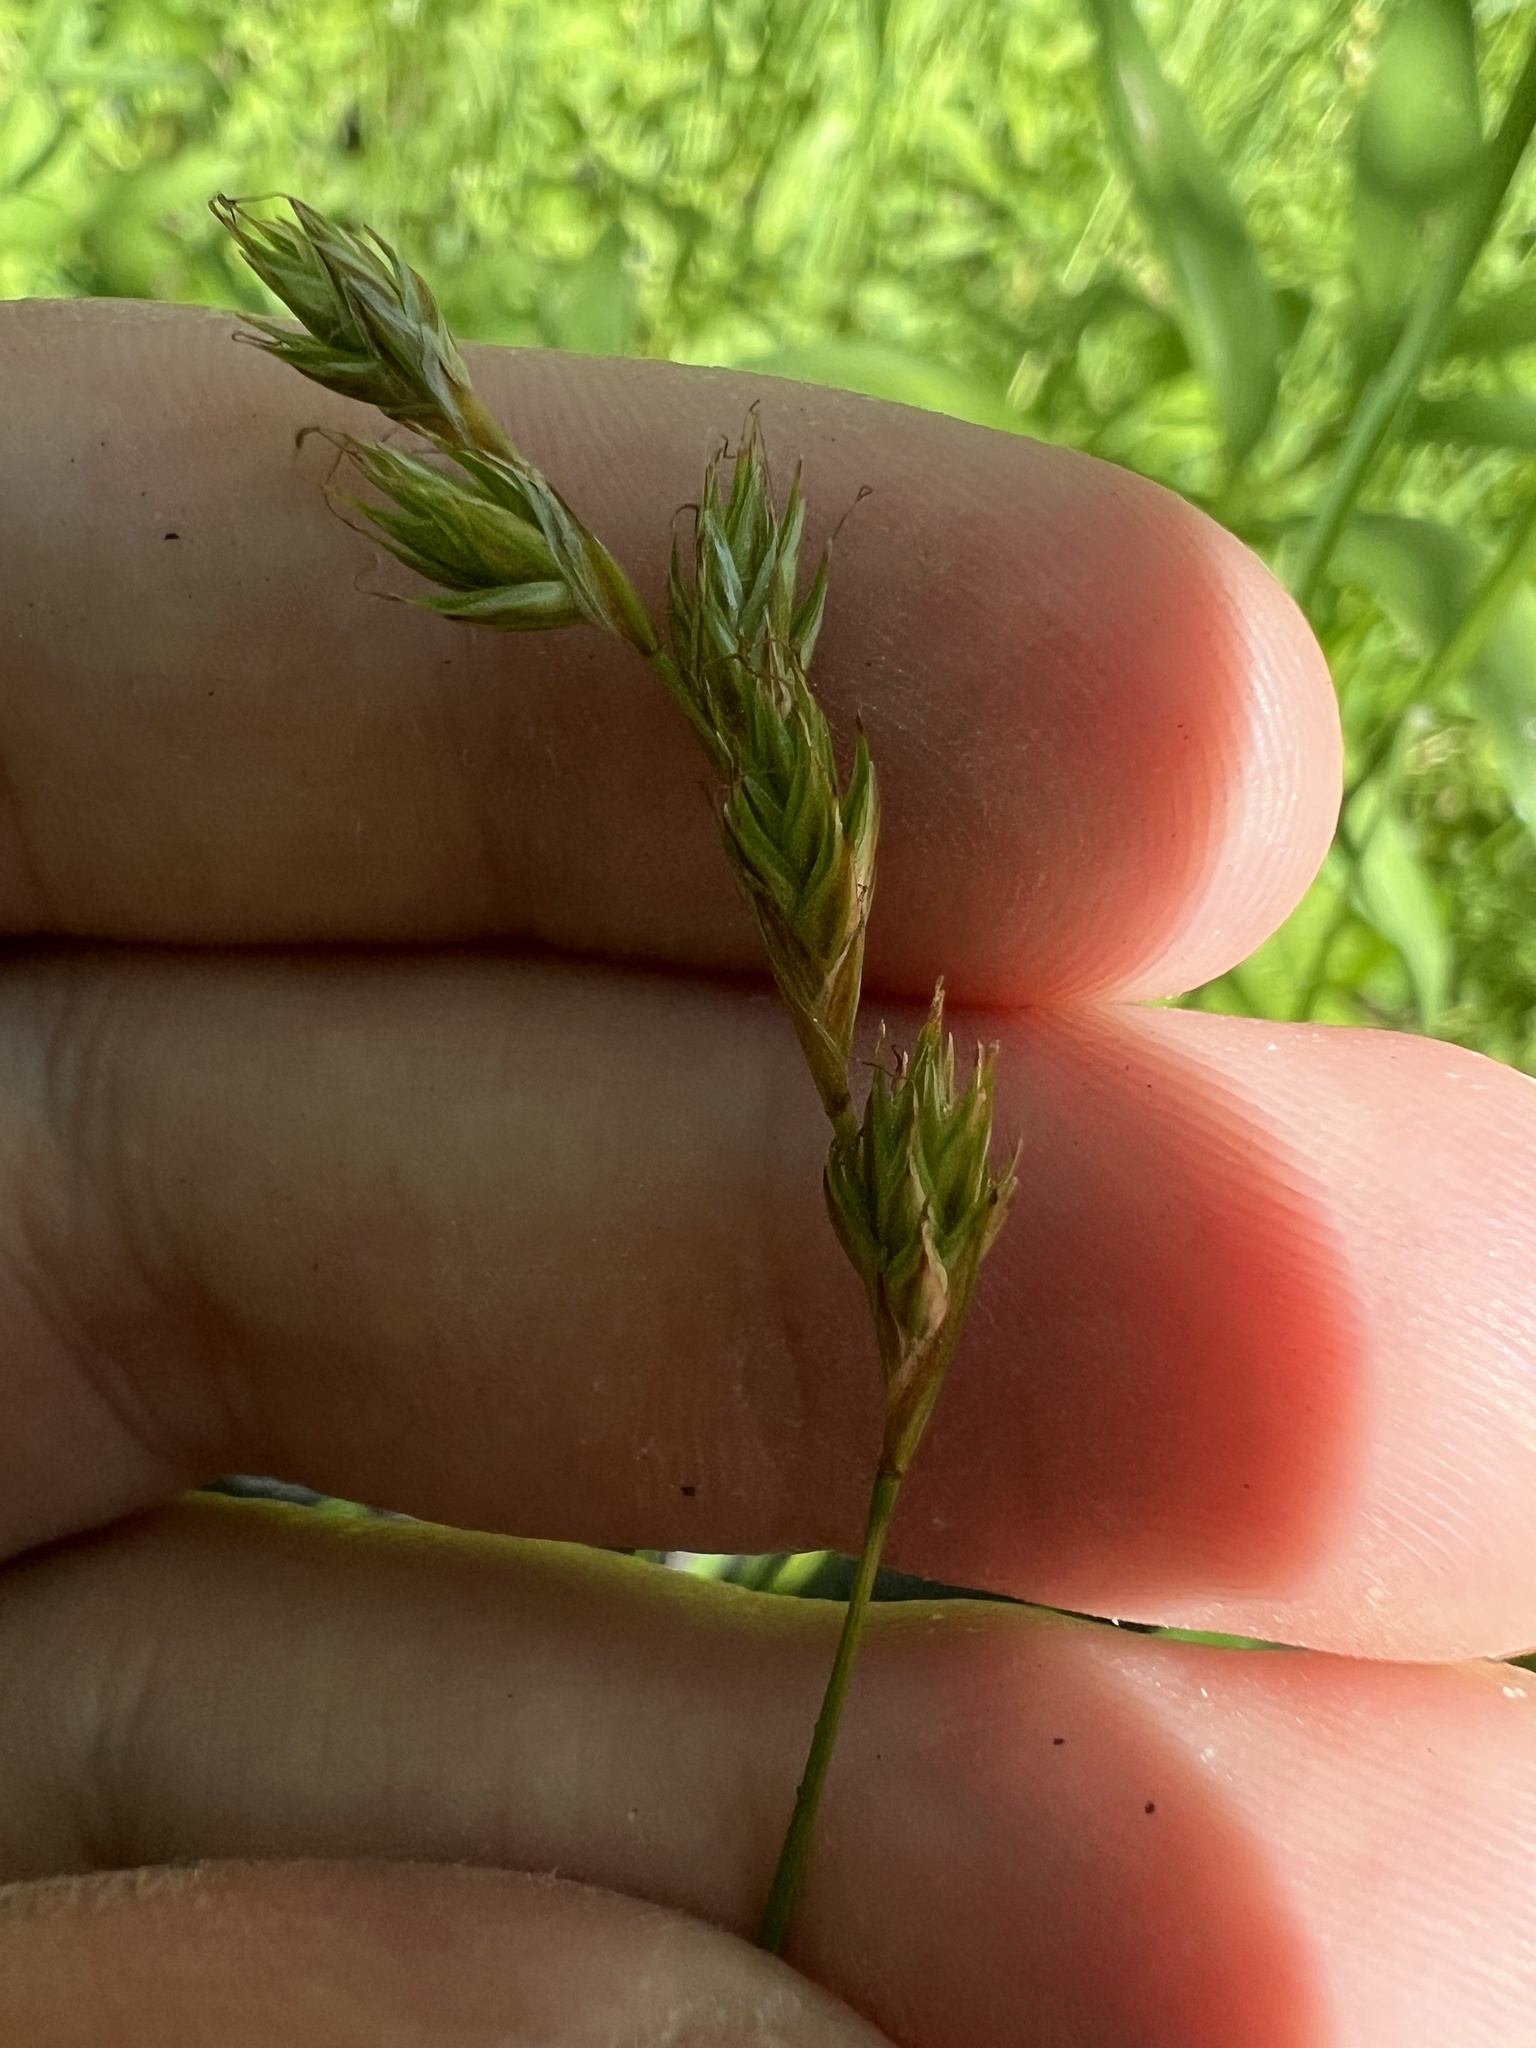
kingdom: Plantae
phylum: Tracheophyta
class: Liliopsida
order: Poales
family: Cyperaceae
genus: Carex
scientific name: Carex praticola
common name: Large-fruited oval sedge
